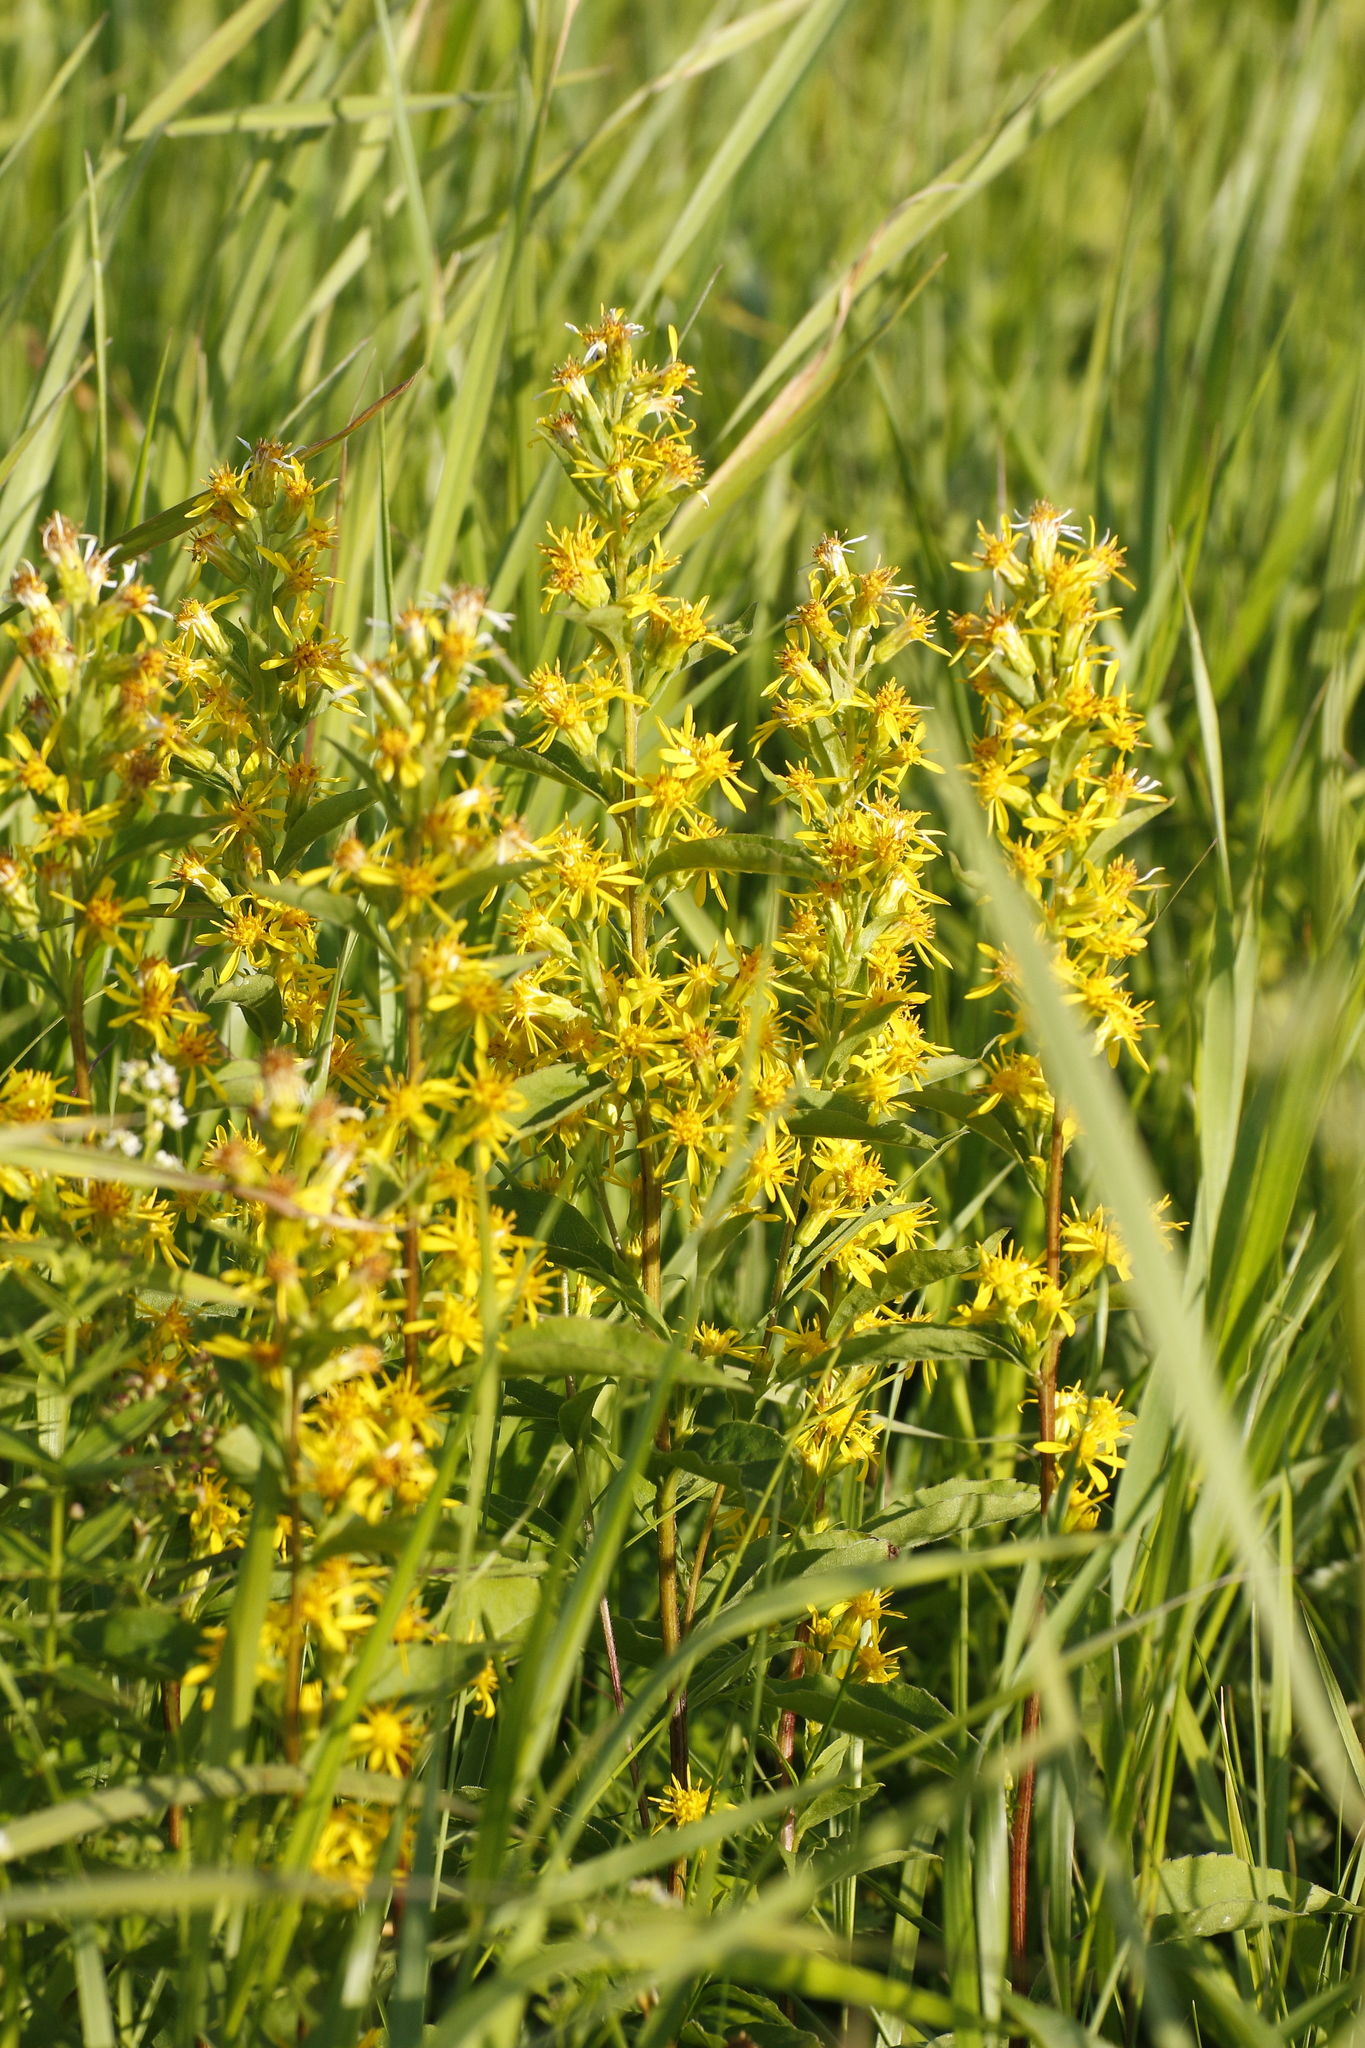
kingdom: Plantae
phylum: Tracheophyta
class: Magnoliopsida
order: Asterales
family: Asteraceae
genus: Solidago
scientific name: Solidago virgaurea
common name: Goldenrod
